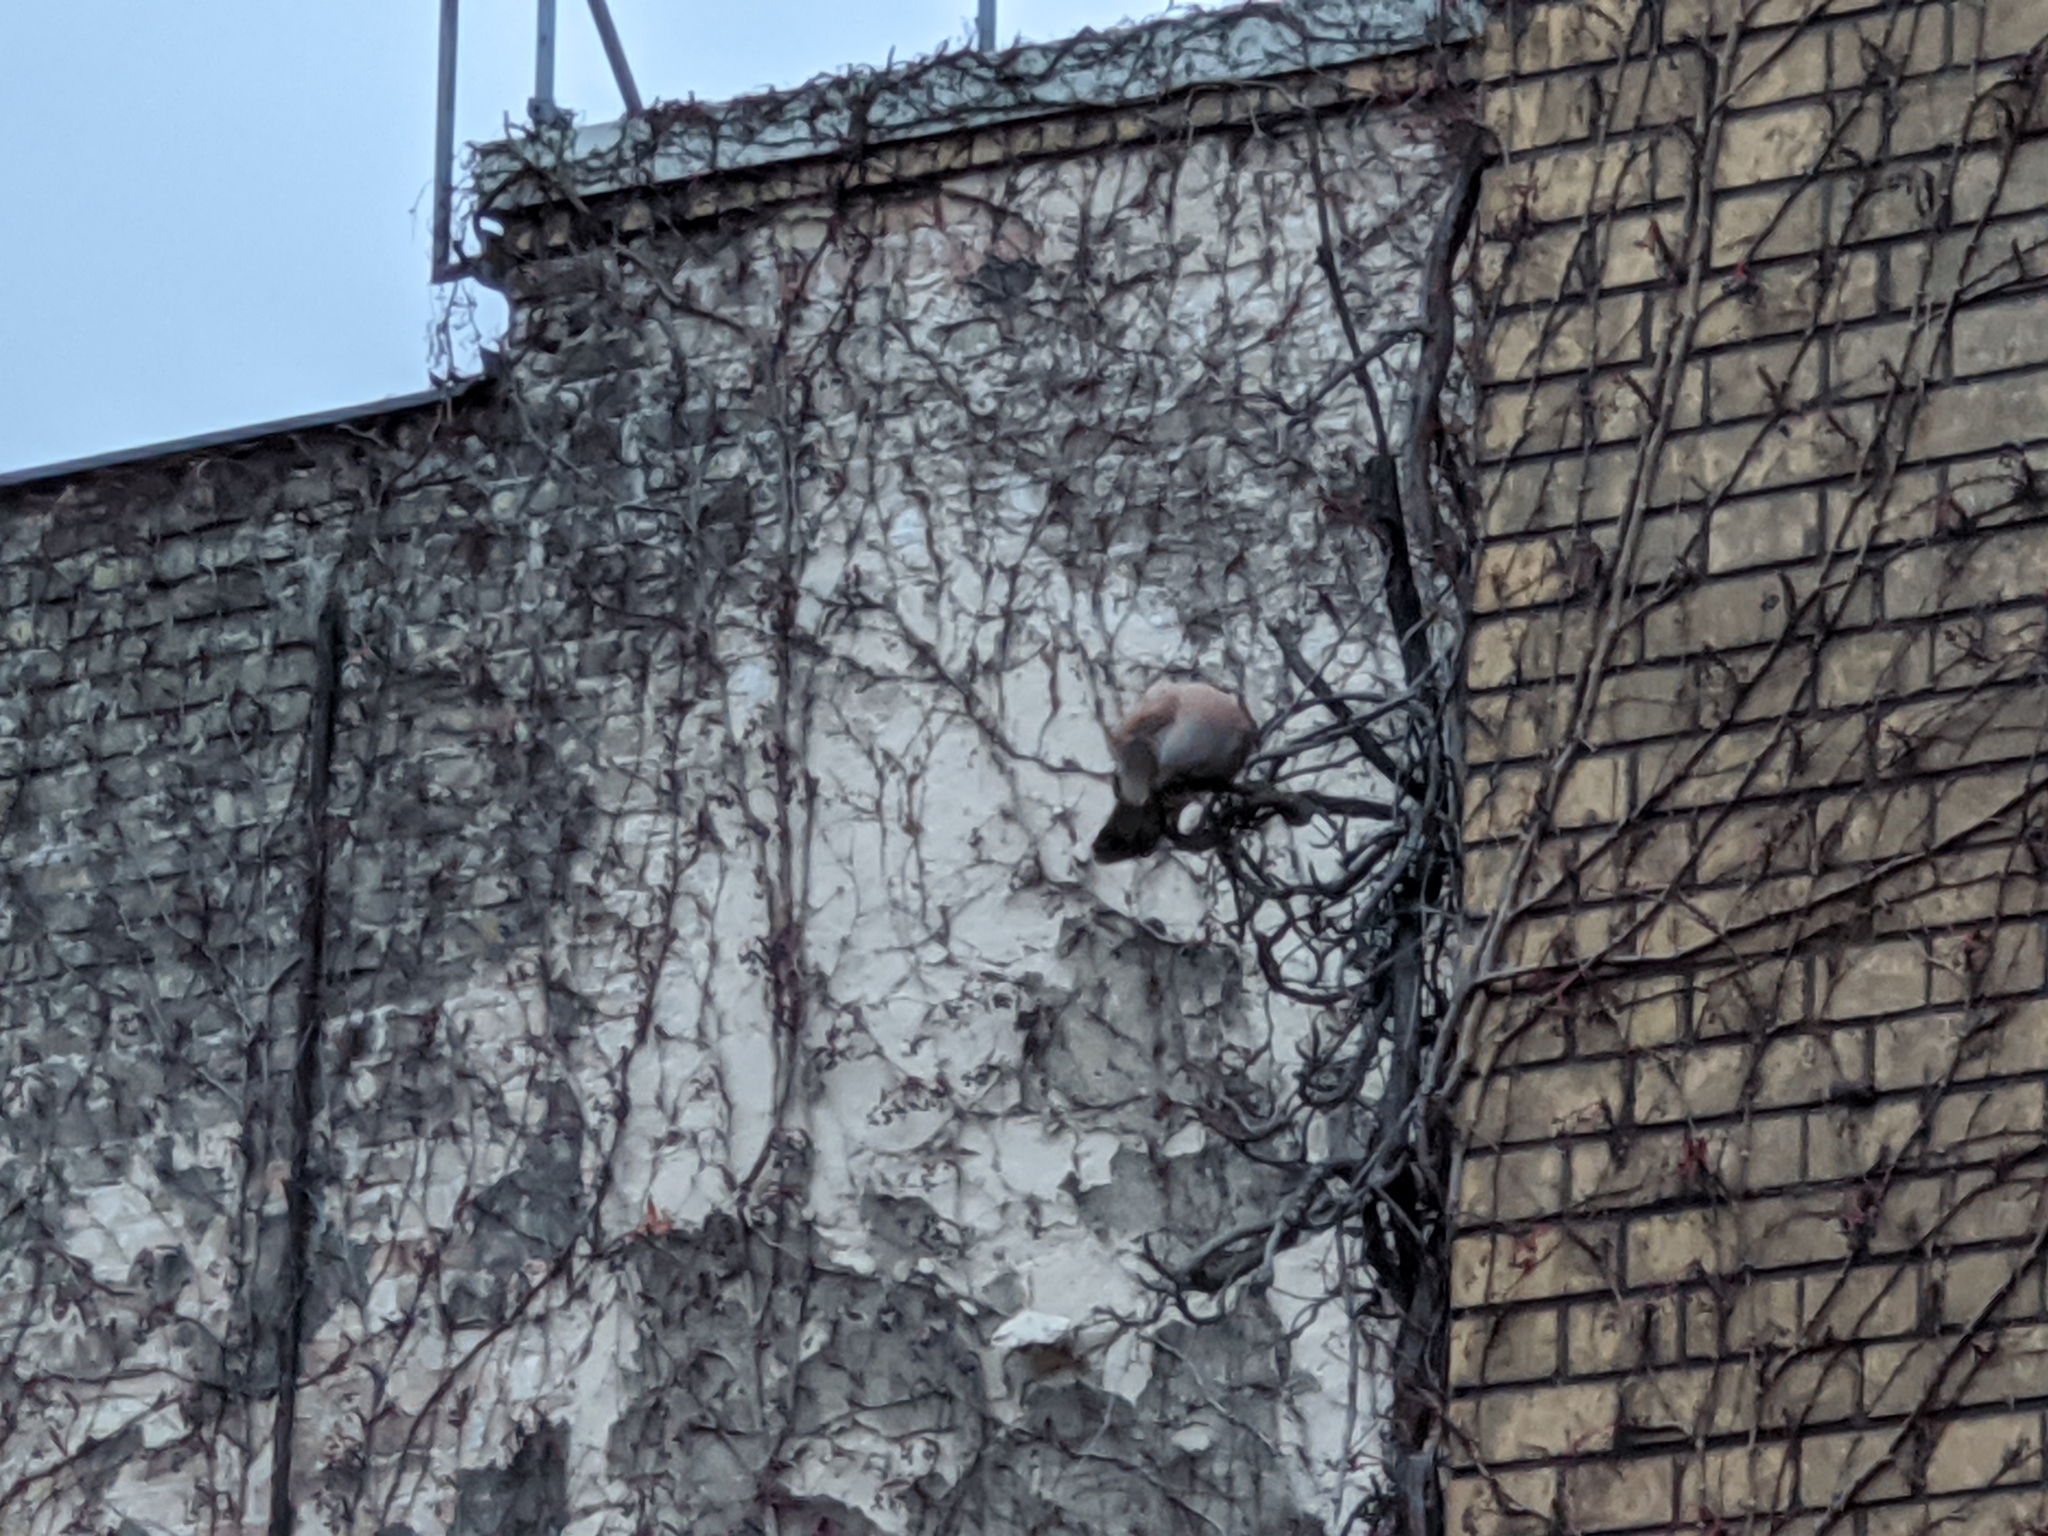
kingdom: Animalia
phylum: Chordata
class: Aves
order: Falconiformes
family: Falconidae
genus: Falco
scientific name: Falco tinnunculus
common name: Common kestrel
